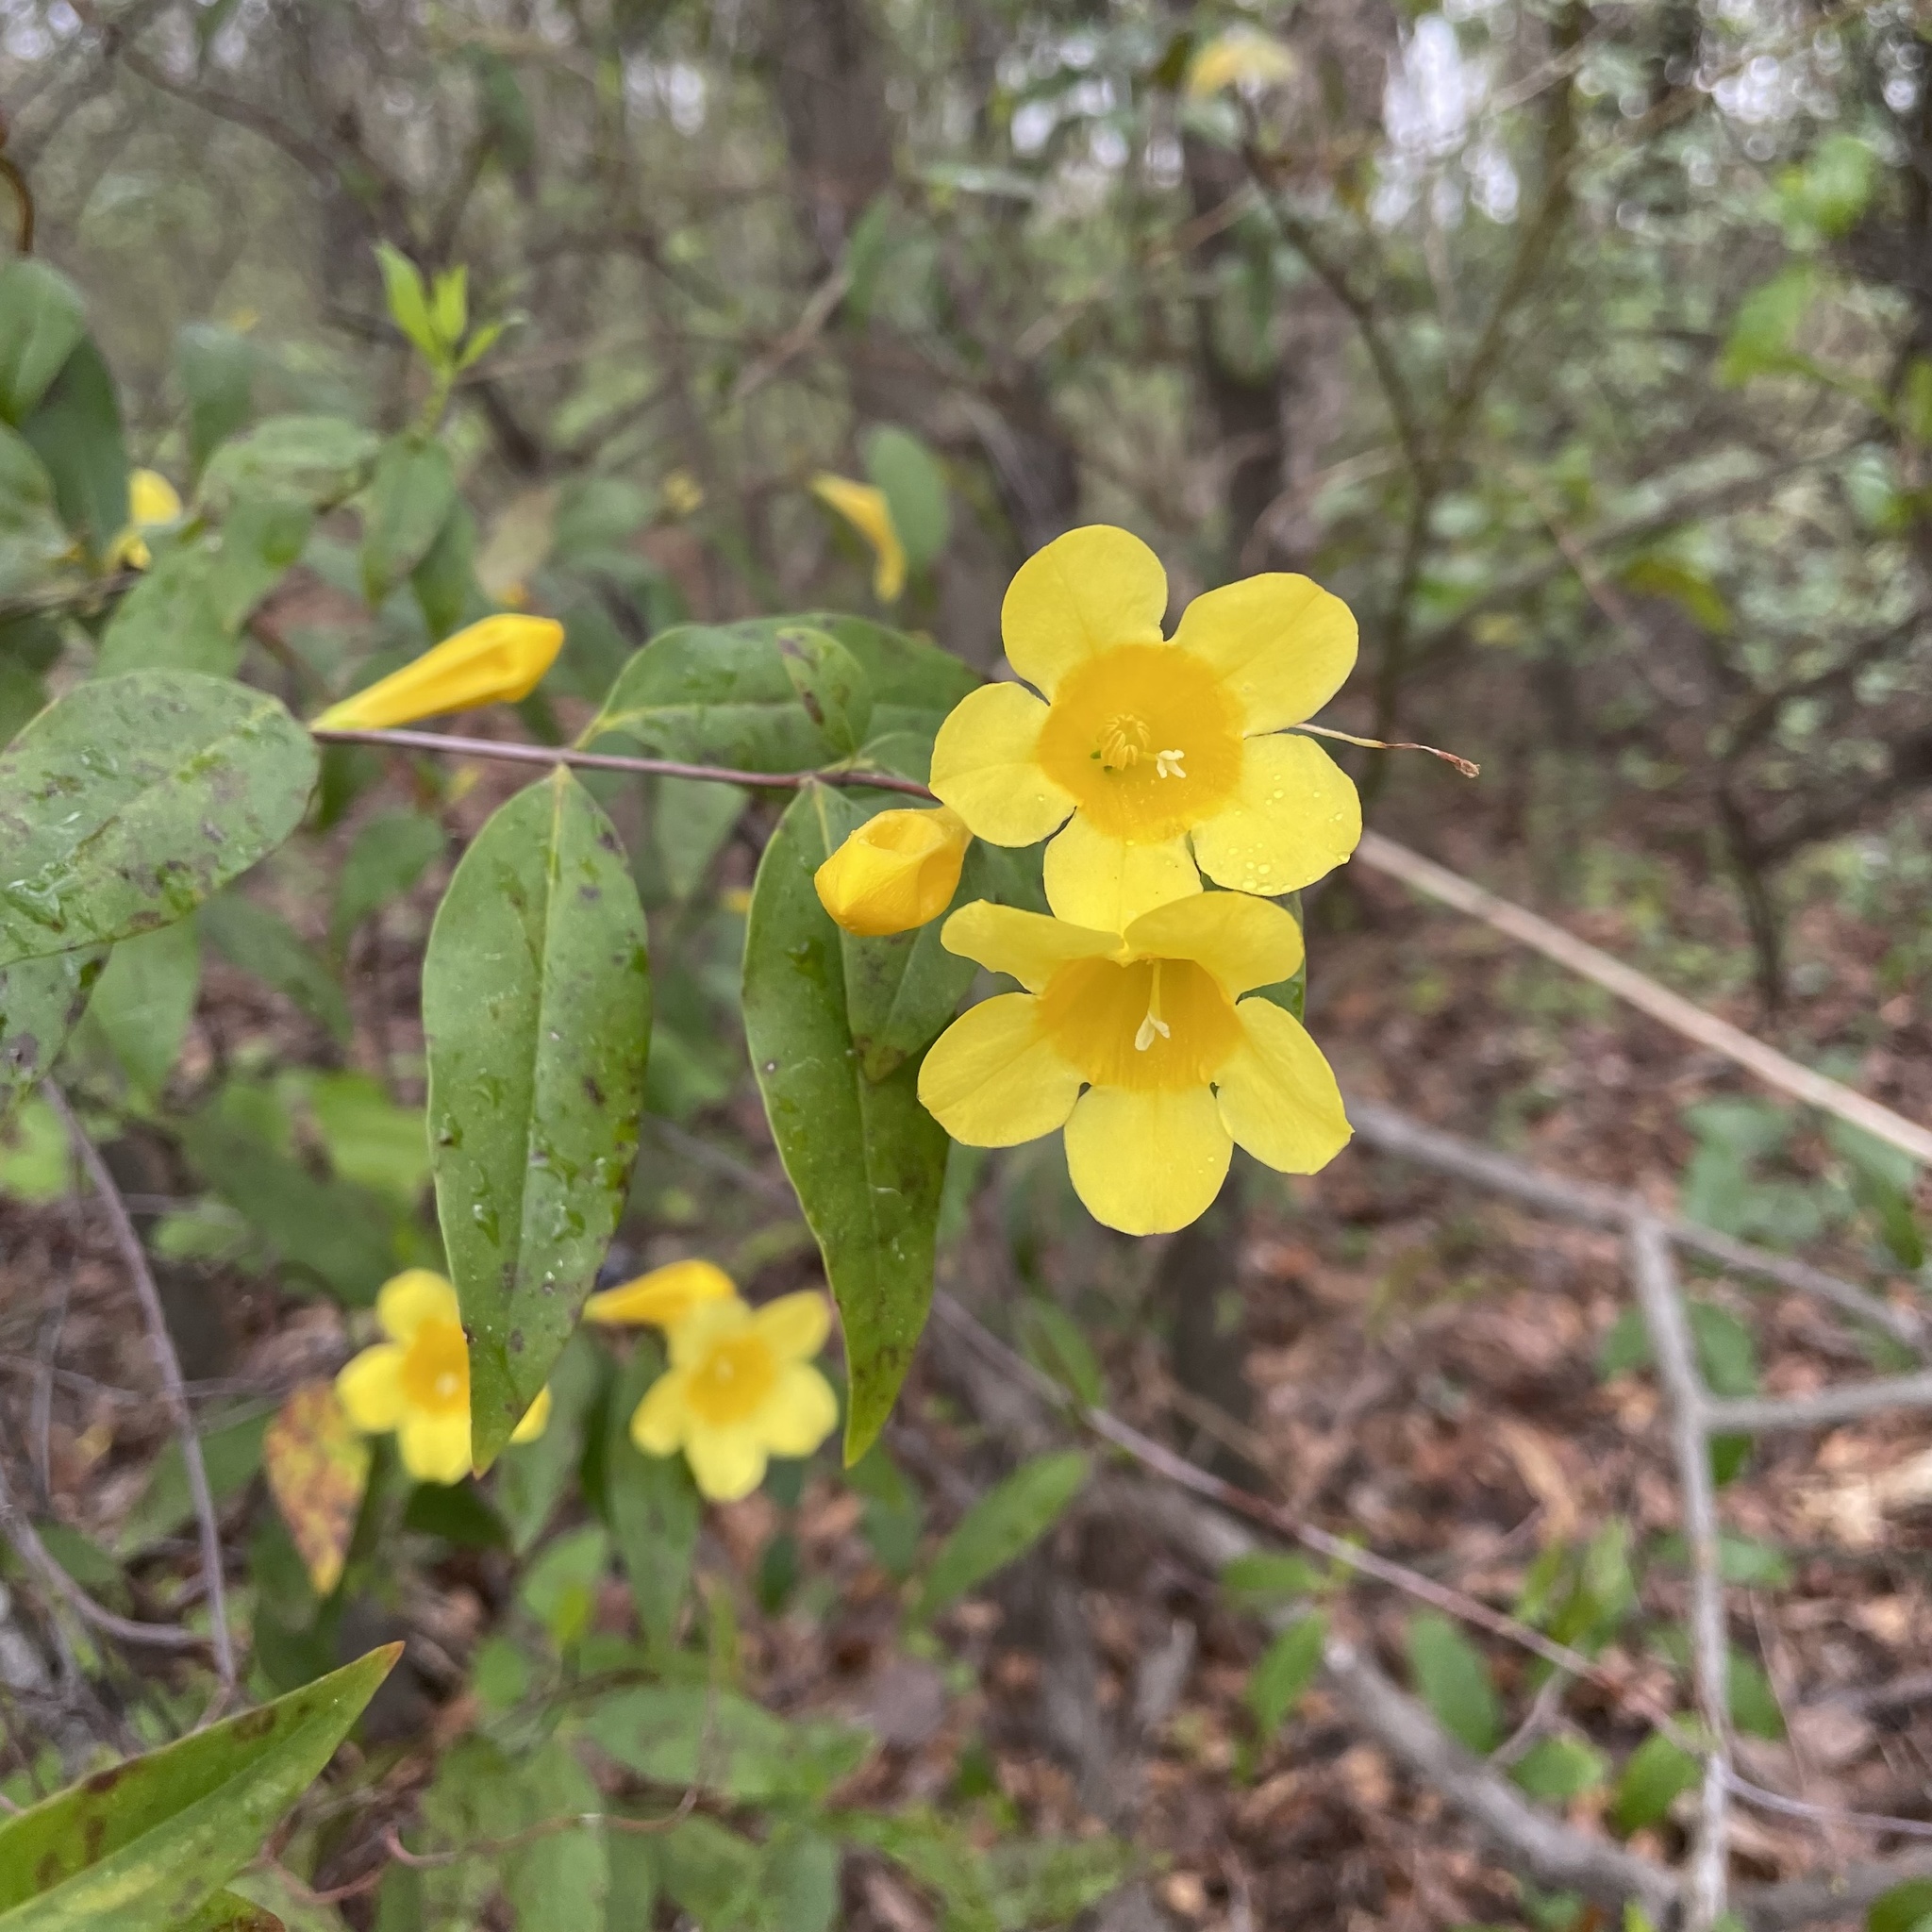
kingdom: Plantae
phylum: Tracheophyta
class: Magnoliopsida
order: Gentianales
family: Gelsemiaceae
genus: Gelsemium
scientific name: Gelsemium sempervirens
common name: Carolina-jasmine
